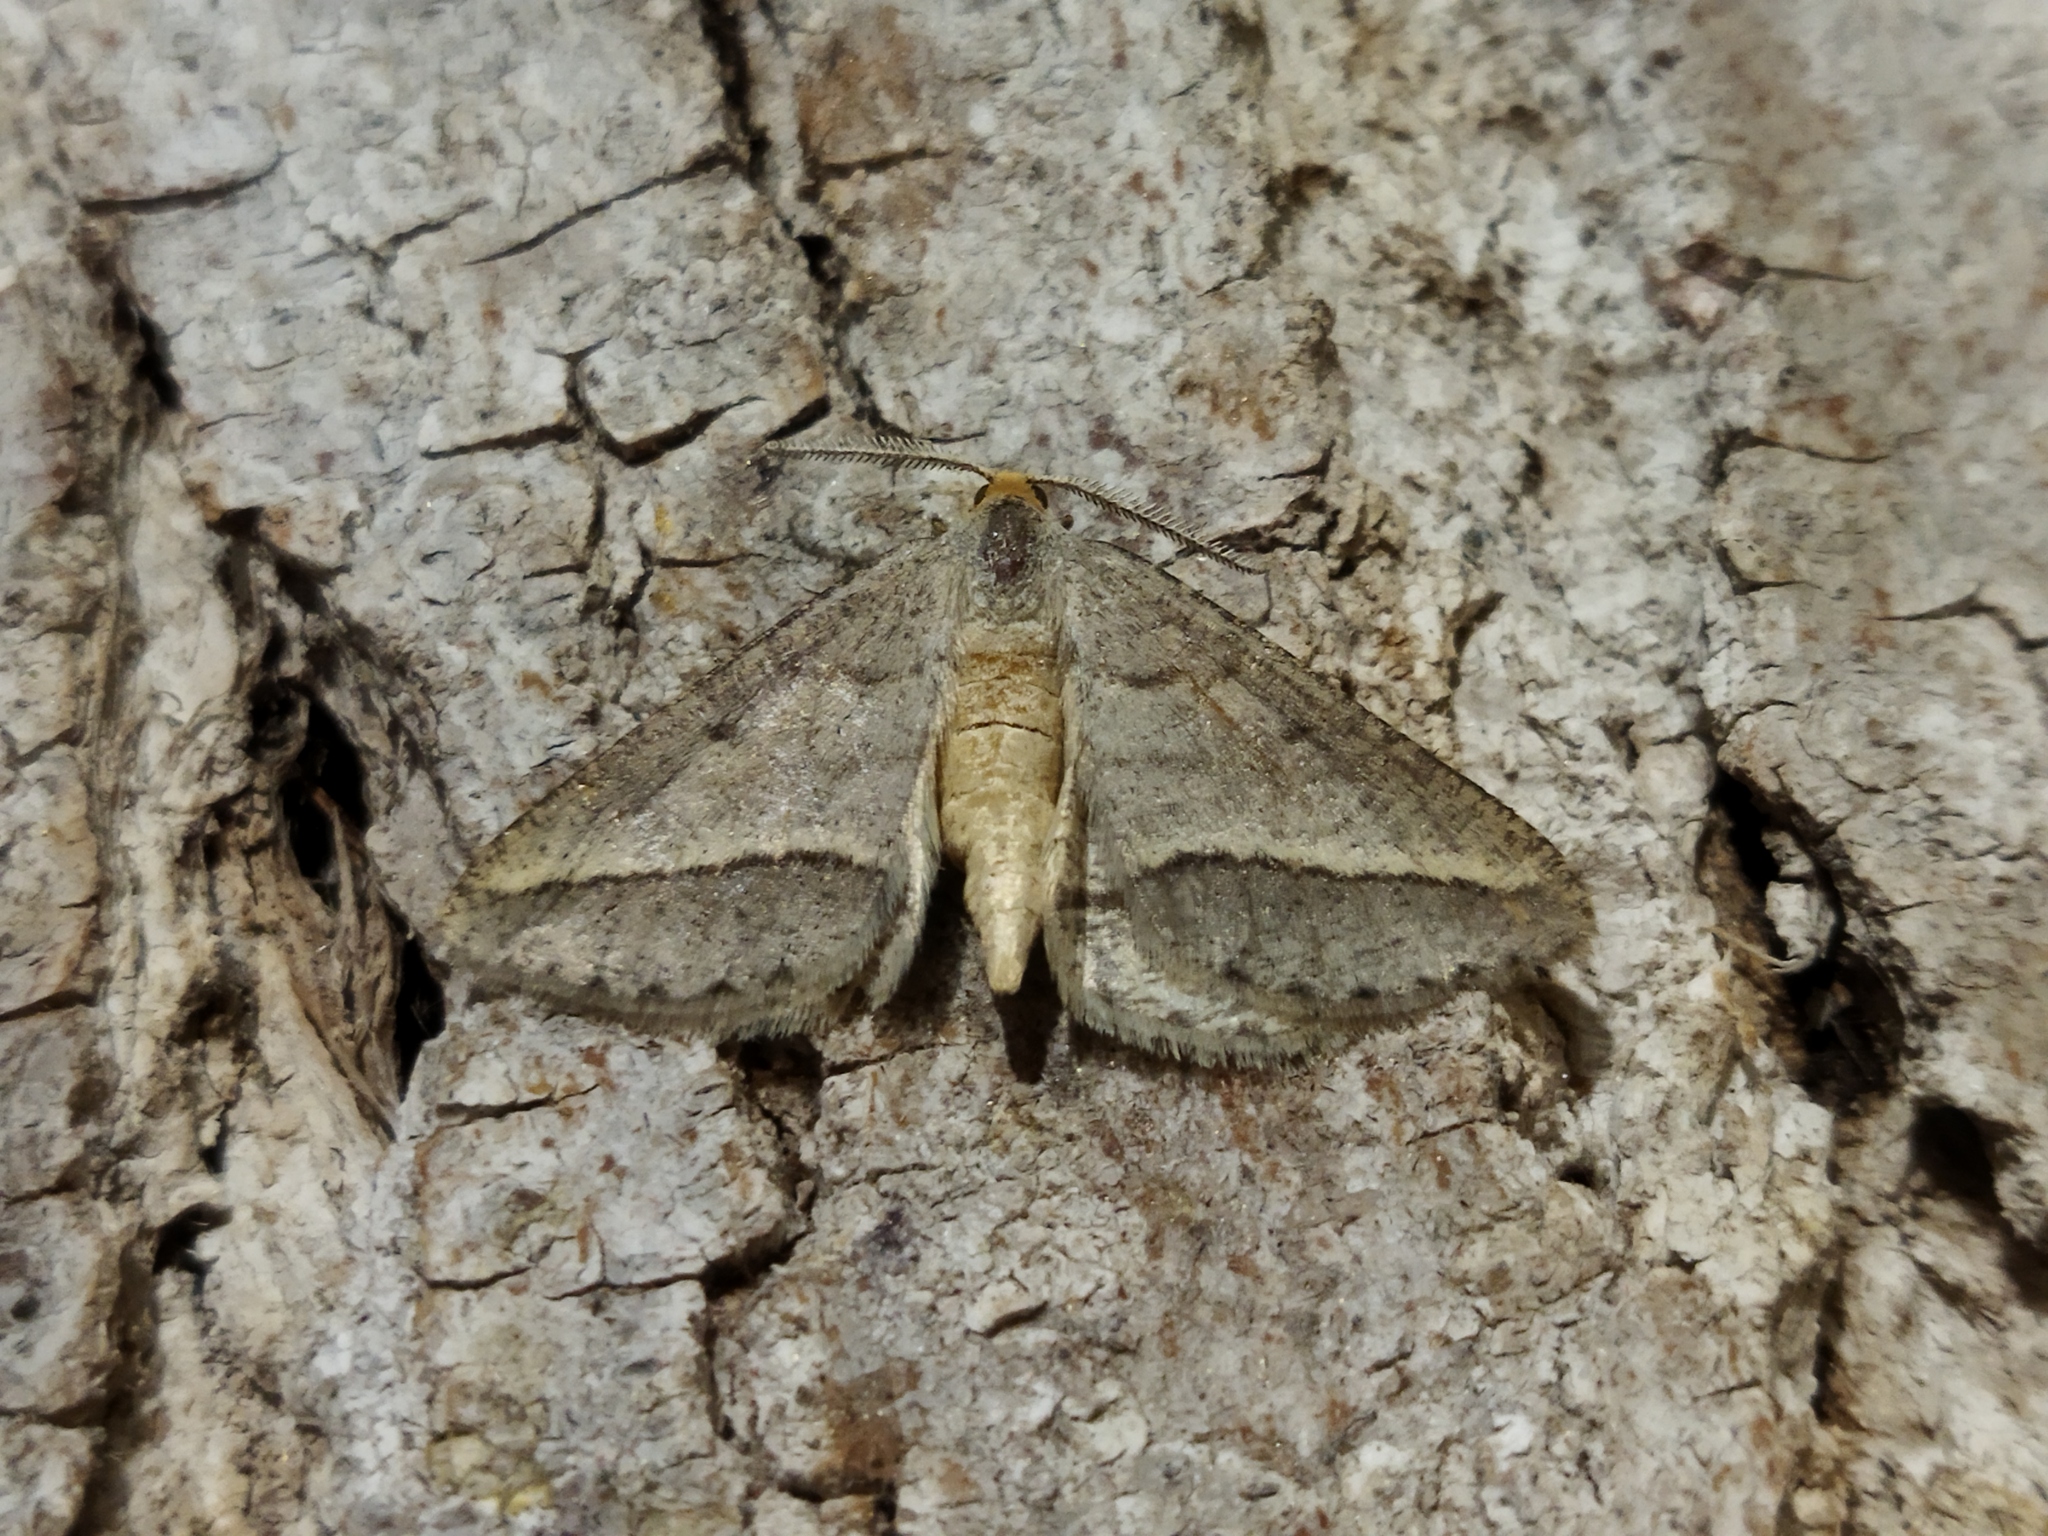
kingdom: Animalia
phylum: Arthropoda
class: Insecta
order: Lepidoptera
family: Geometridae
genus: Tephrina
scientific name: Tephrina arenacearia
